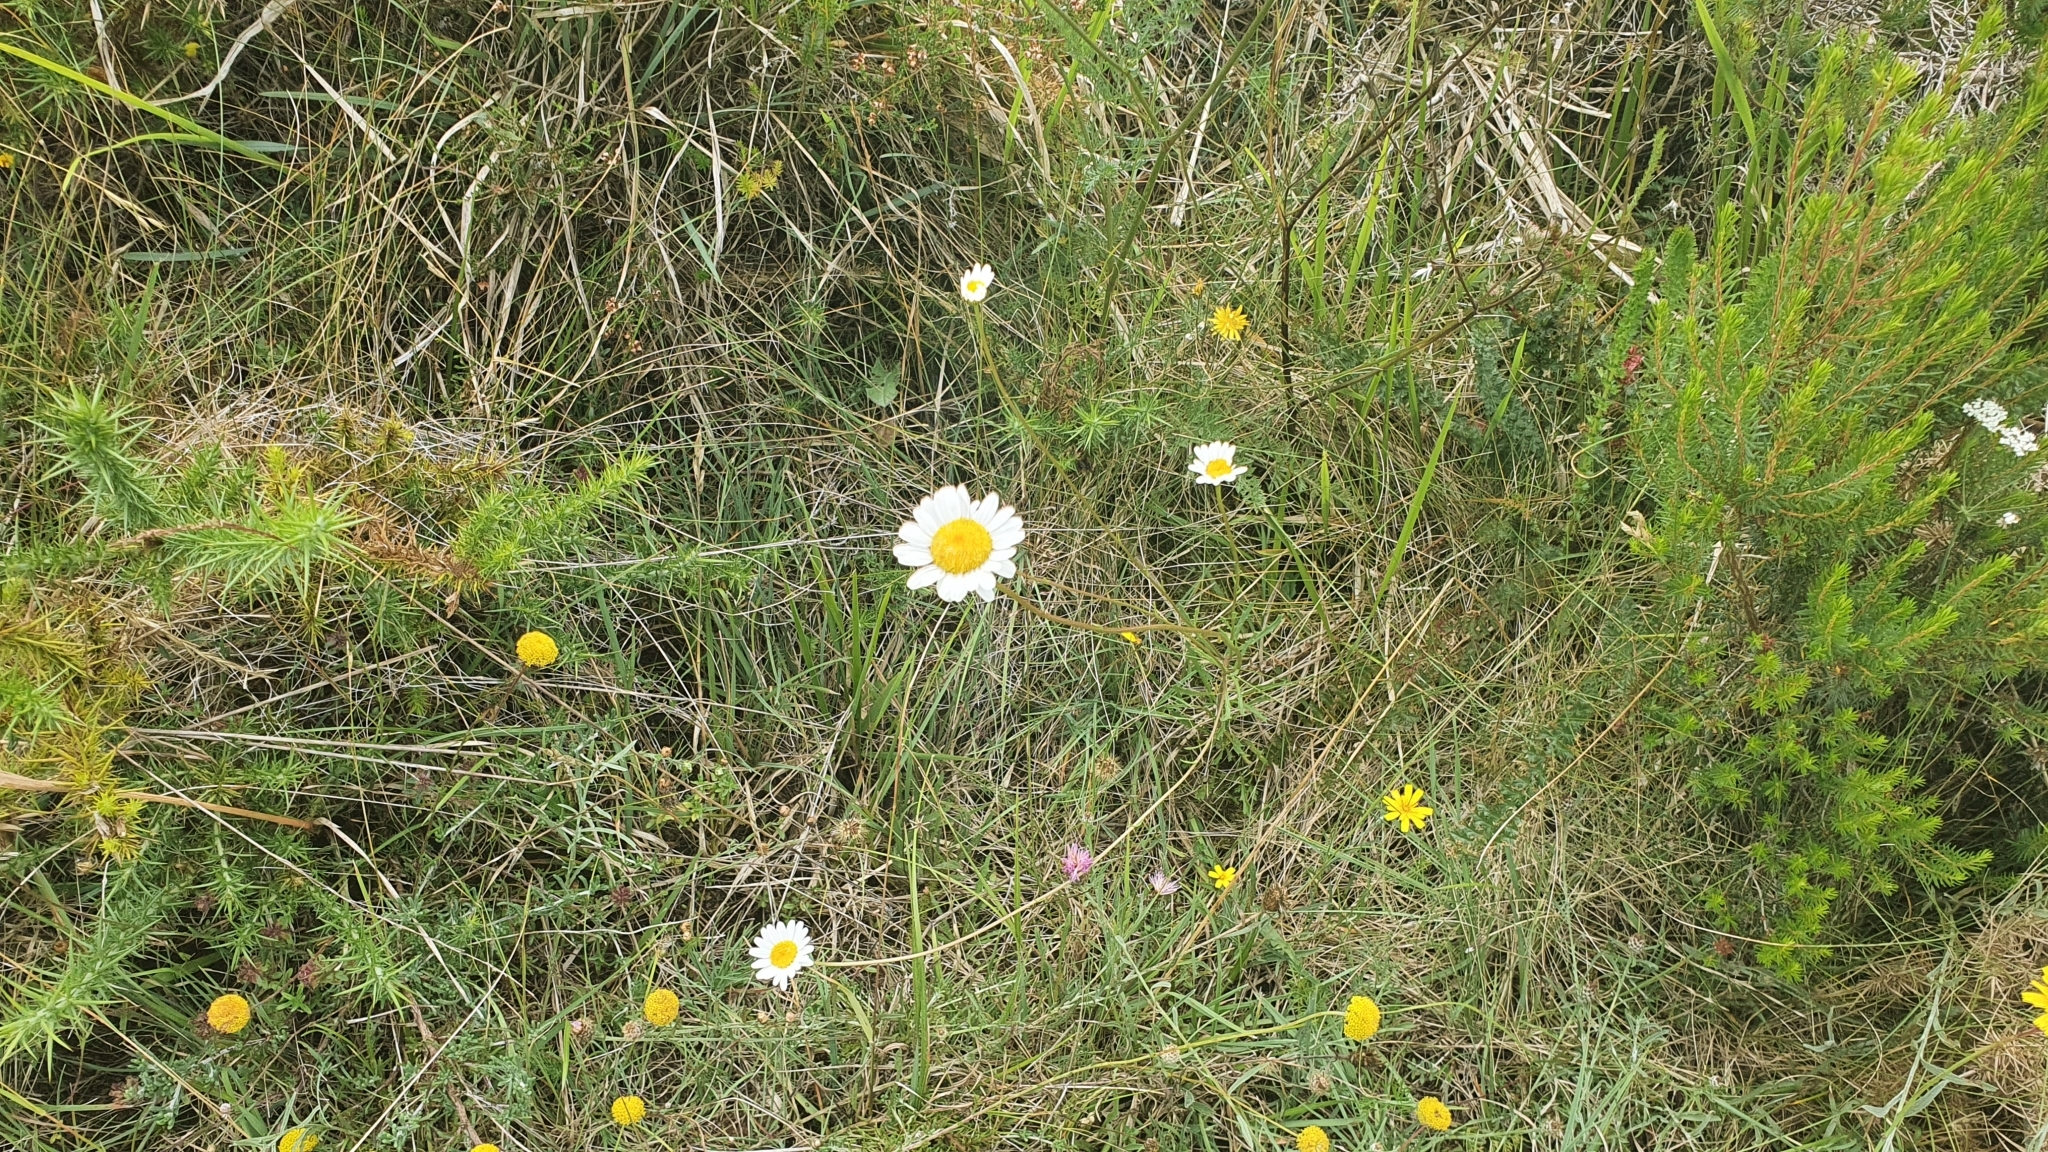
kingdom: Plantae
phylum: Tracheophyta
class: Magnoliopsida
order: Asterales
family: Asteraceae
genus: Leucanthemum
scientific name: Leucanthemum gallaecicum
